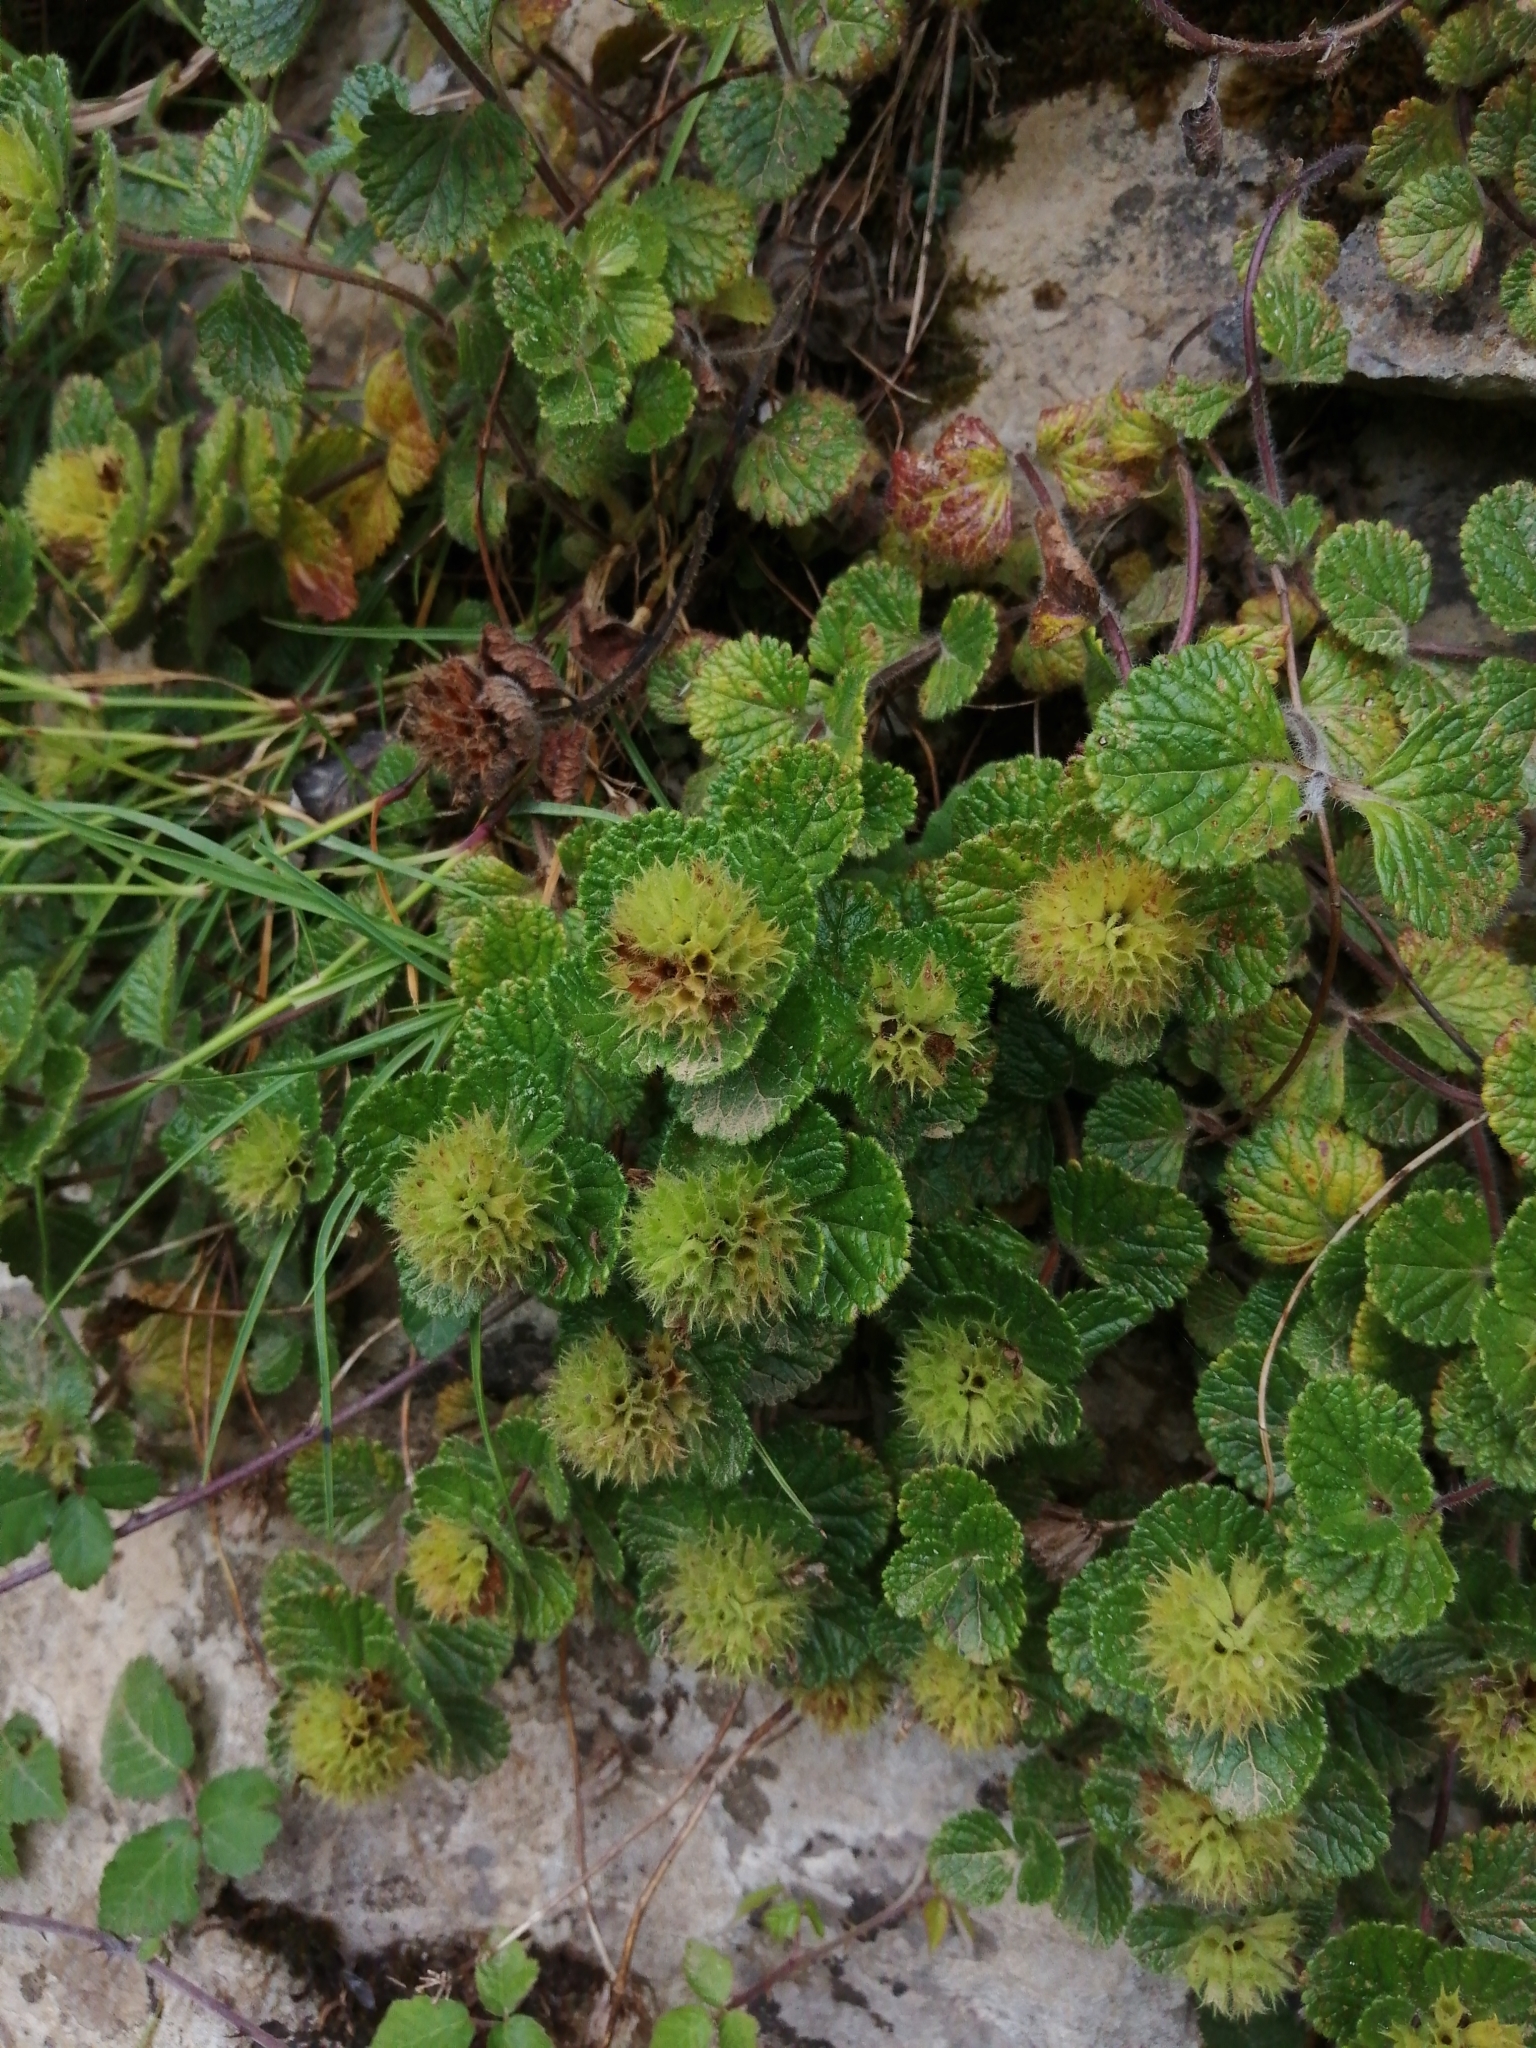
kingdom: Plantae
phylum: Tracheophyta
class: Magnoliopsida
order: Lamiales
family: Lamiaceae
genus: Teucrium
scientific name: Teucrium pyrenaicum
